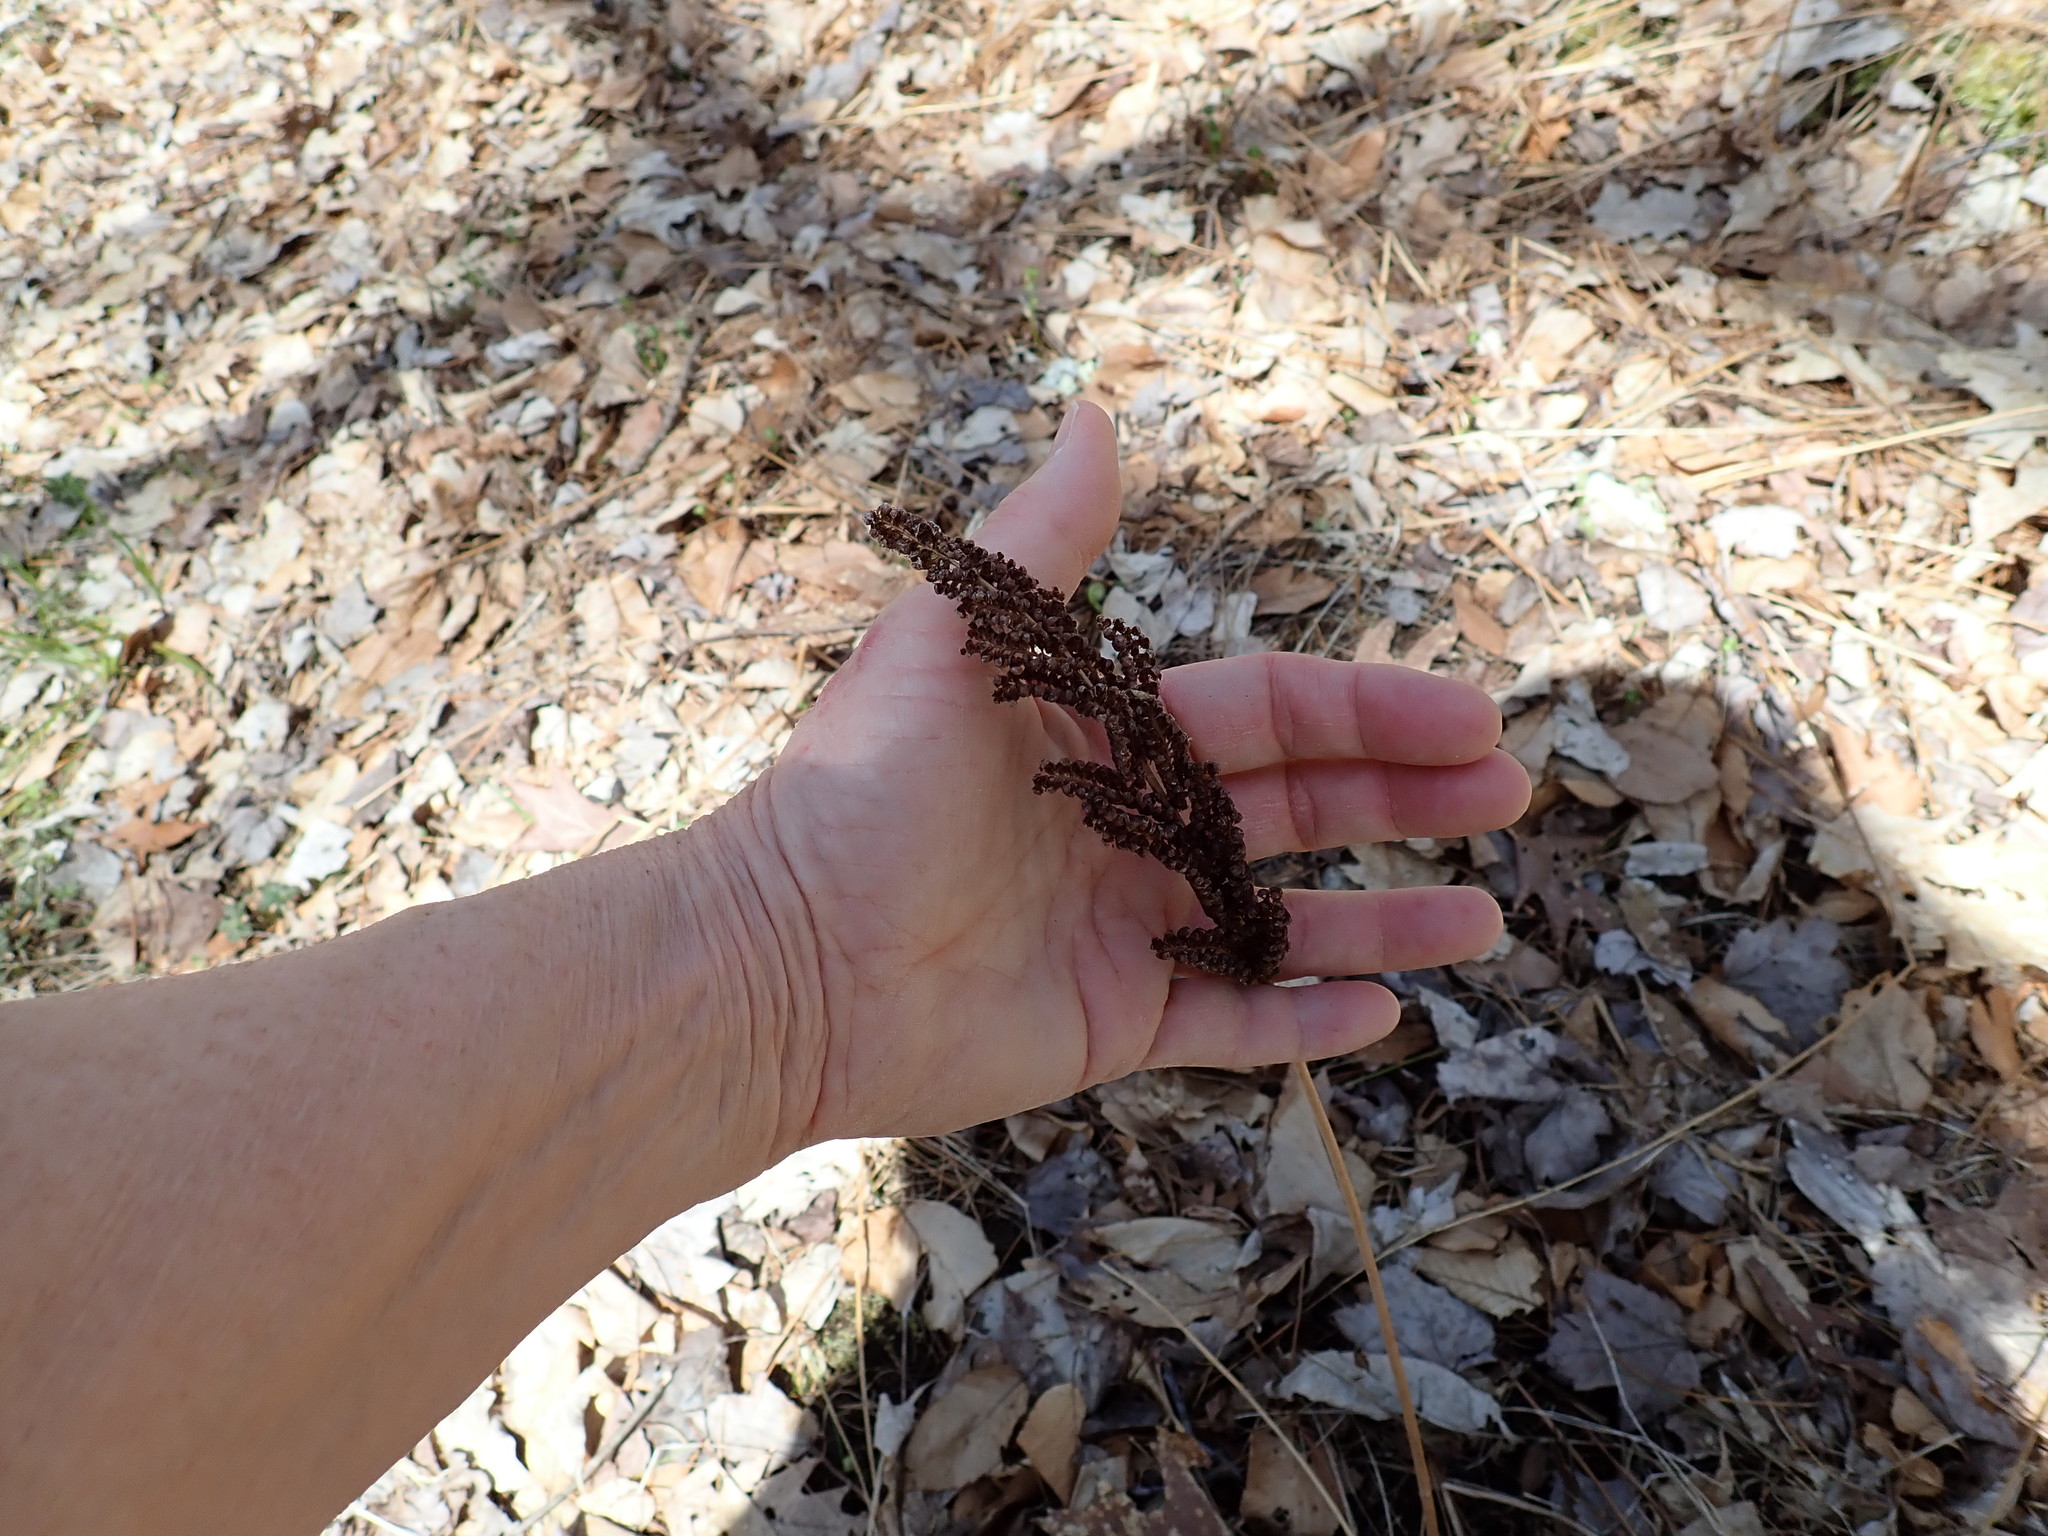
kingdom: Plantae
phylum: Tracheophyta
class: Polypodiopsida
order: Polypodiales
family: Onocleaceae
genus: Onoclea
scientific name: Onoclea sensibilis
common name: Sensitive fern
